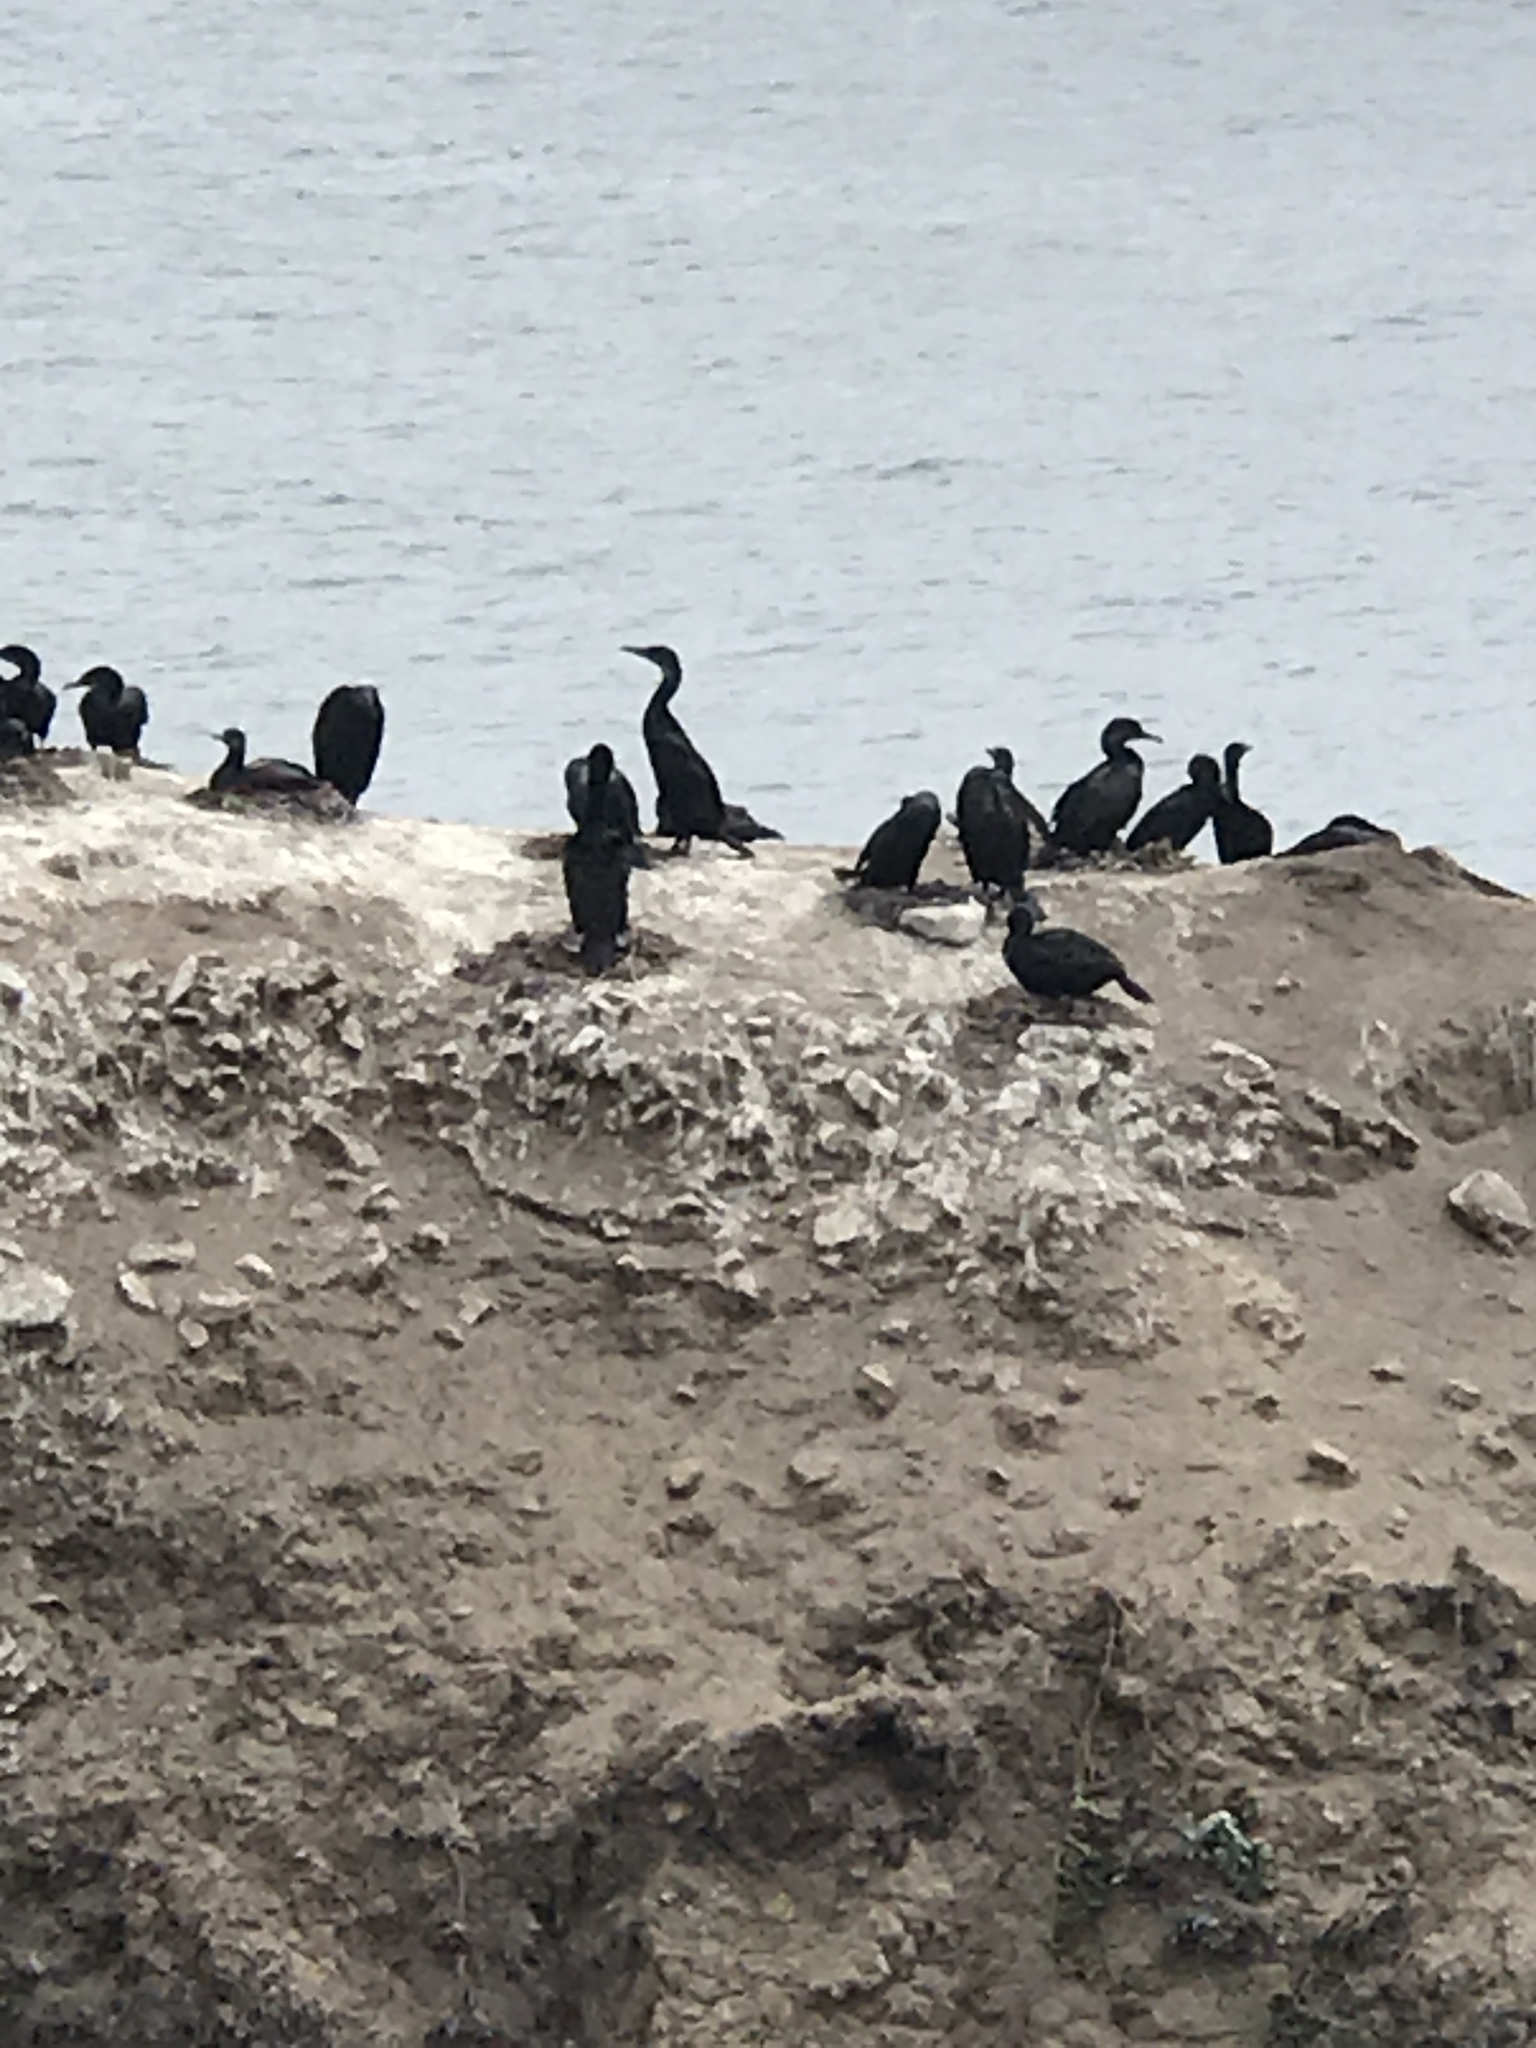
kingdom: Animalia
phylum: Chordata
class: Aves
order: Suliformes
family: Phalacrocoracidae
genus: Urile
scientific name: Urile penicillatus
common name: Brandt's cormorant
